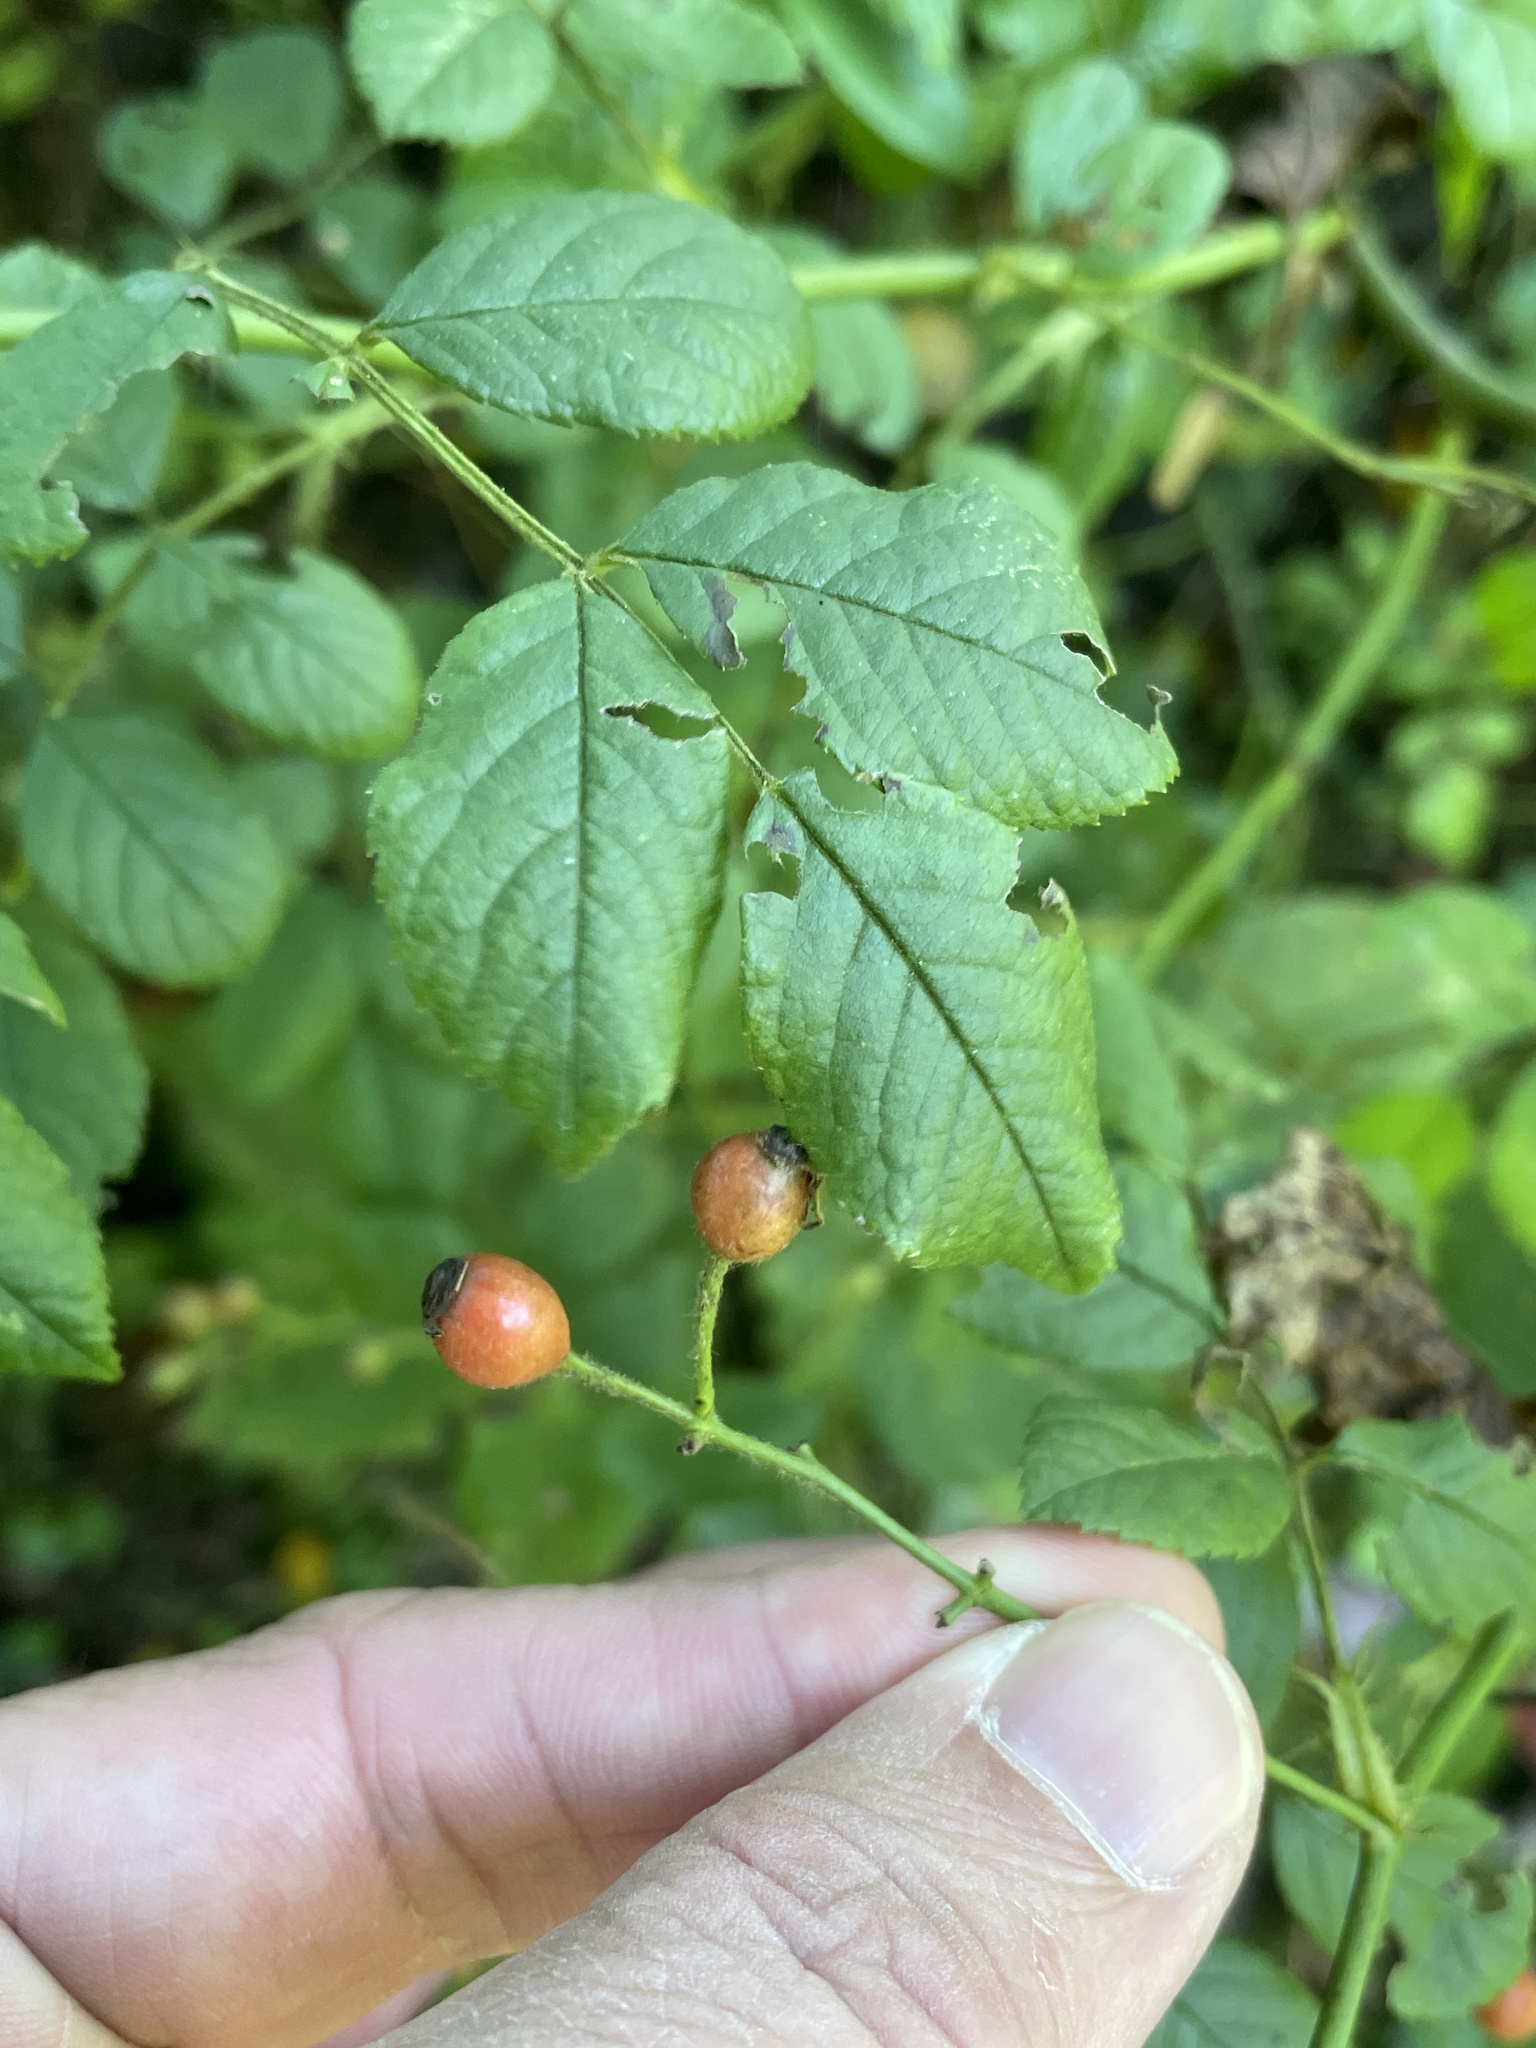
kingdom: Plantae
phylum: Tracheophyta
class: Magnoliopsida
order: Rosales
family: Rosaceae
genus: Rosa
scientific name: Rosa multiflora
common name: Multiflora rose
